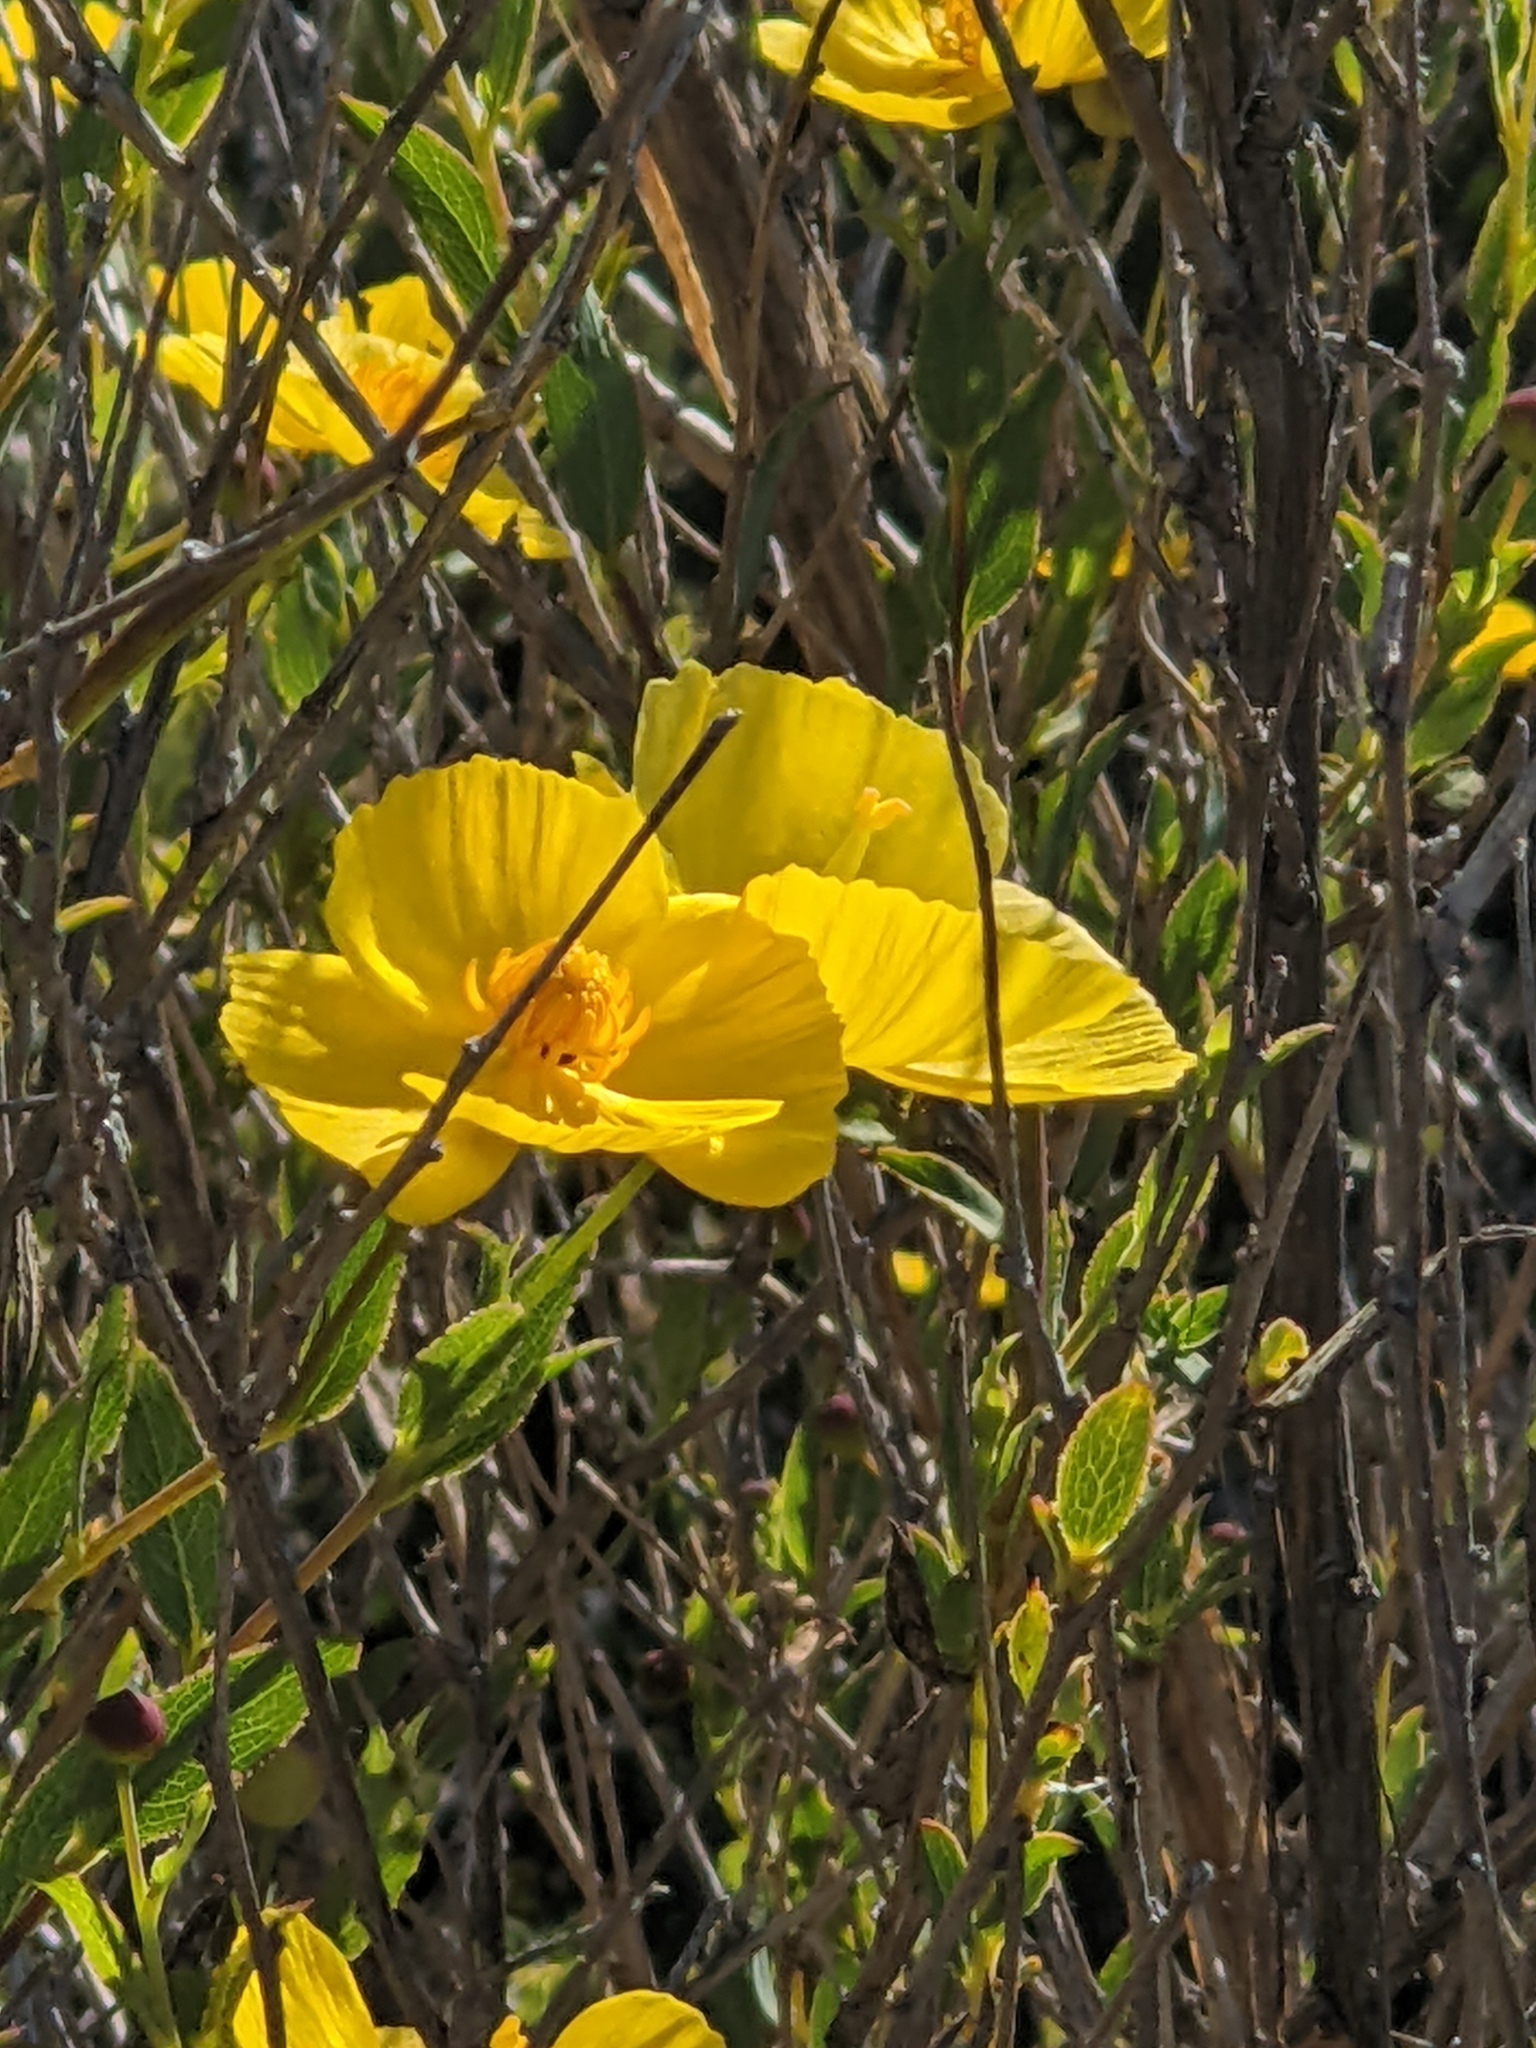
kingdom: Plantae
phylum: Tracheophyta
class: Magnoliopsida
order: Ranunculales
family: Papaveraceae
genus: Dendromecon
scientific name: Dendromecon rigida
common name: Tree poppy
